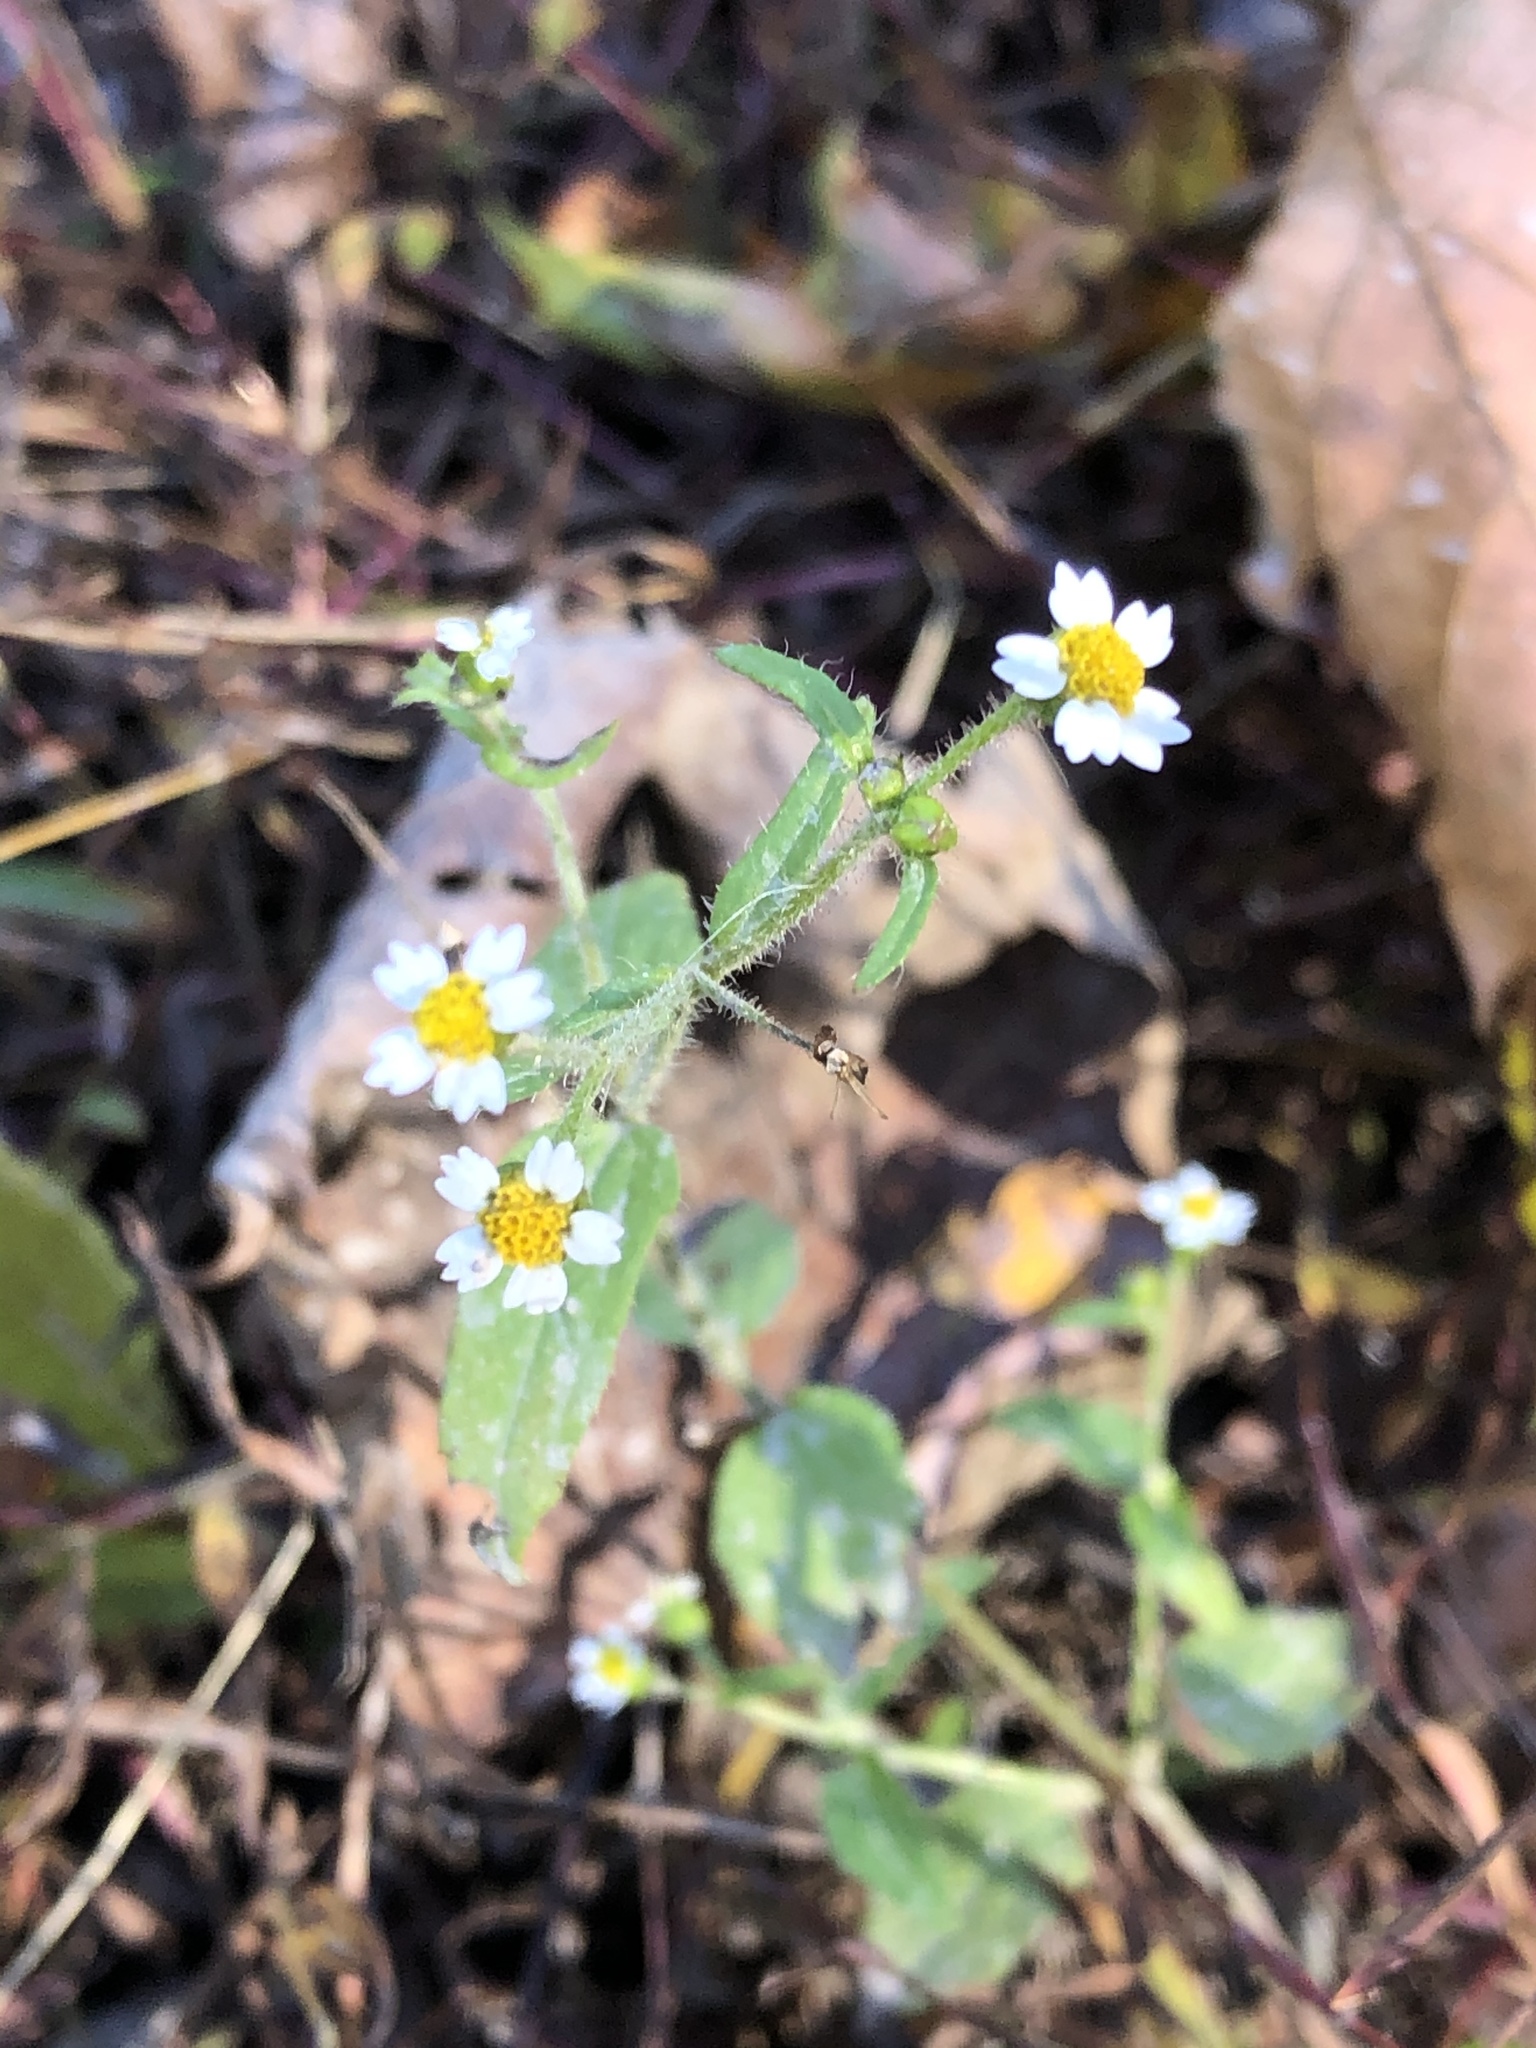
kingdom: Plantae
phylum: Tracheophyta
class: Magnoliopsida
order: Asterales
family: Asteraceae
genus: Galinsoga
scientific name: Galinsoga quadriradiata
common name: Shaggy soldier
